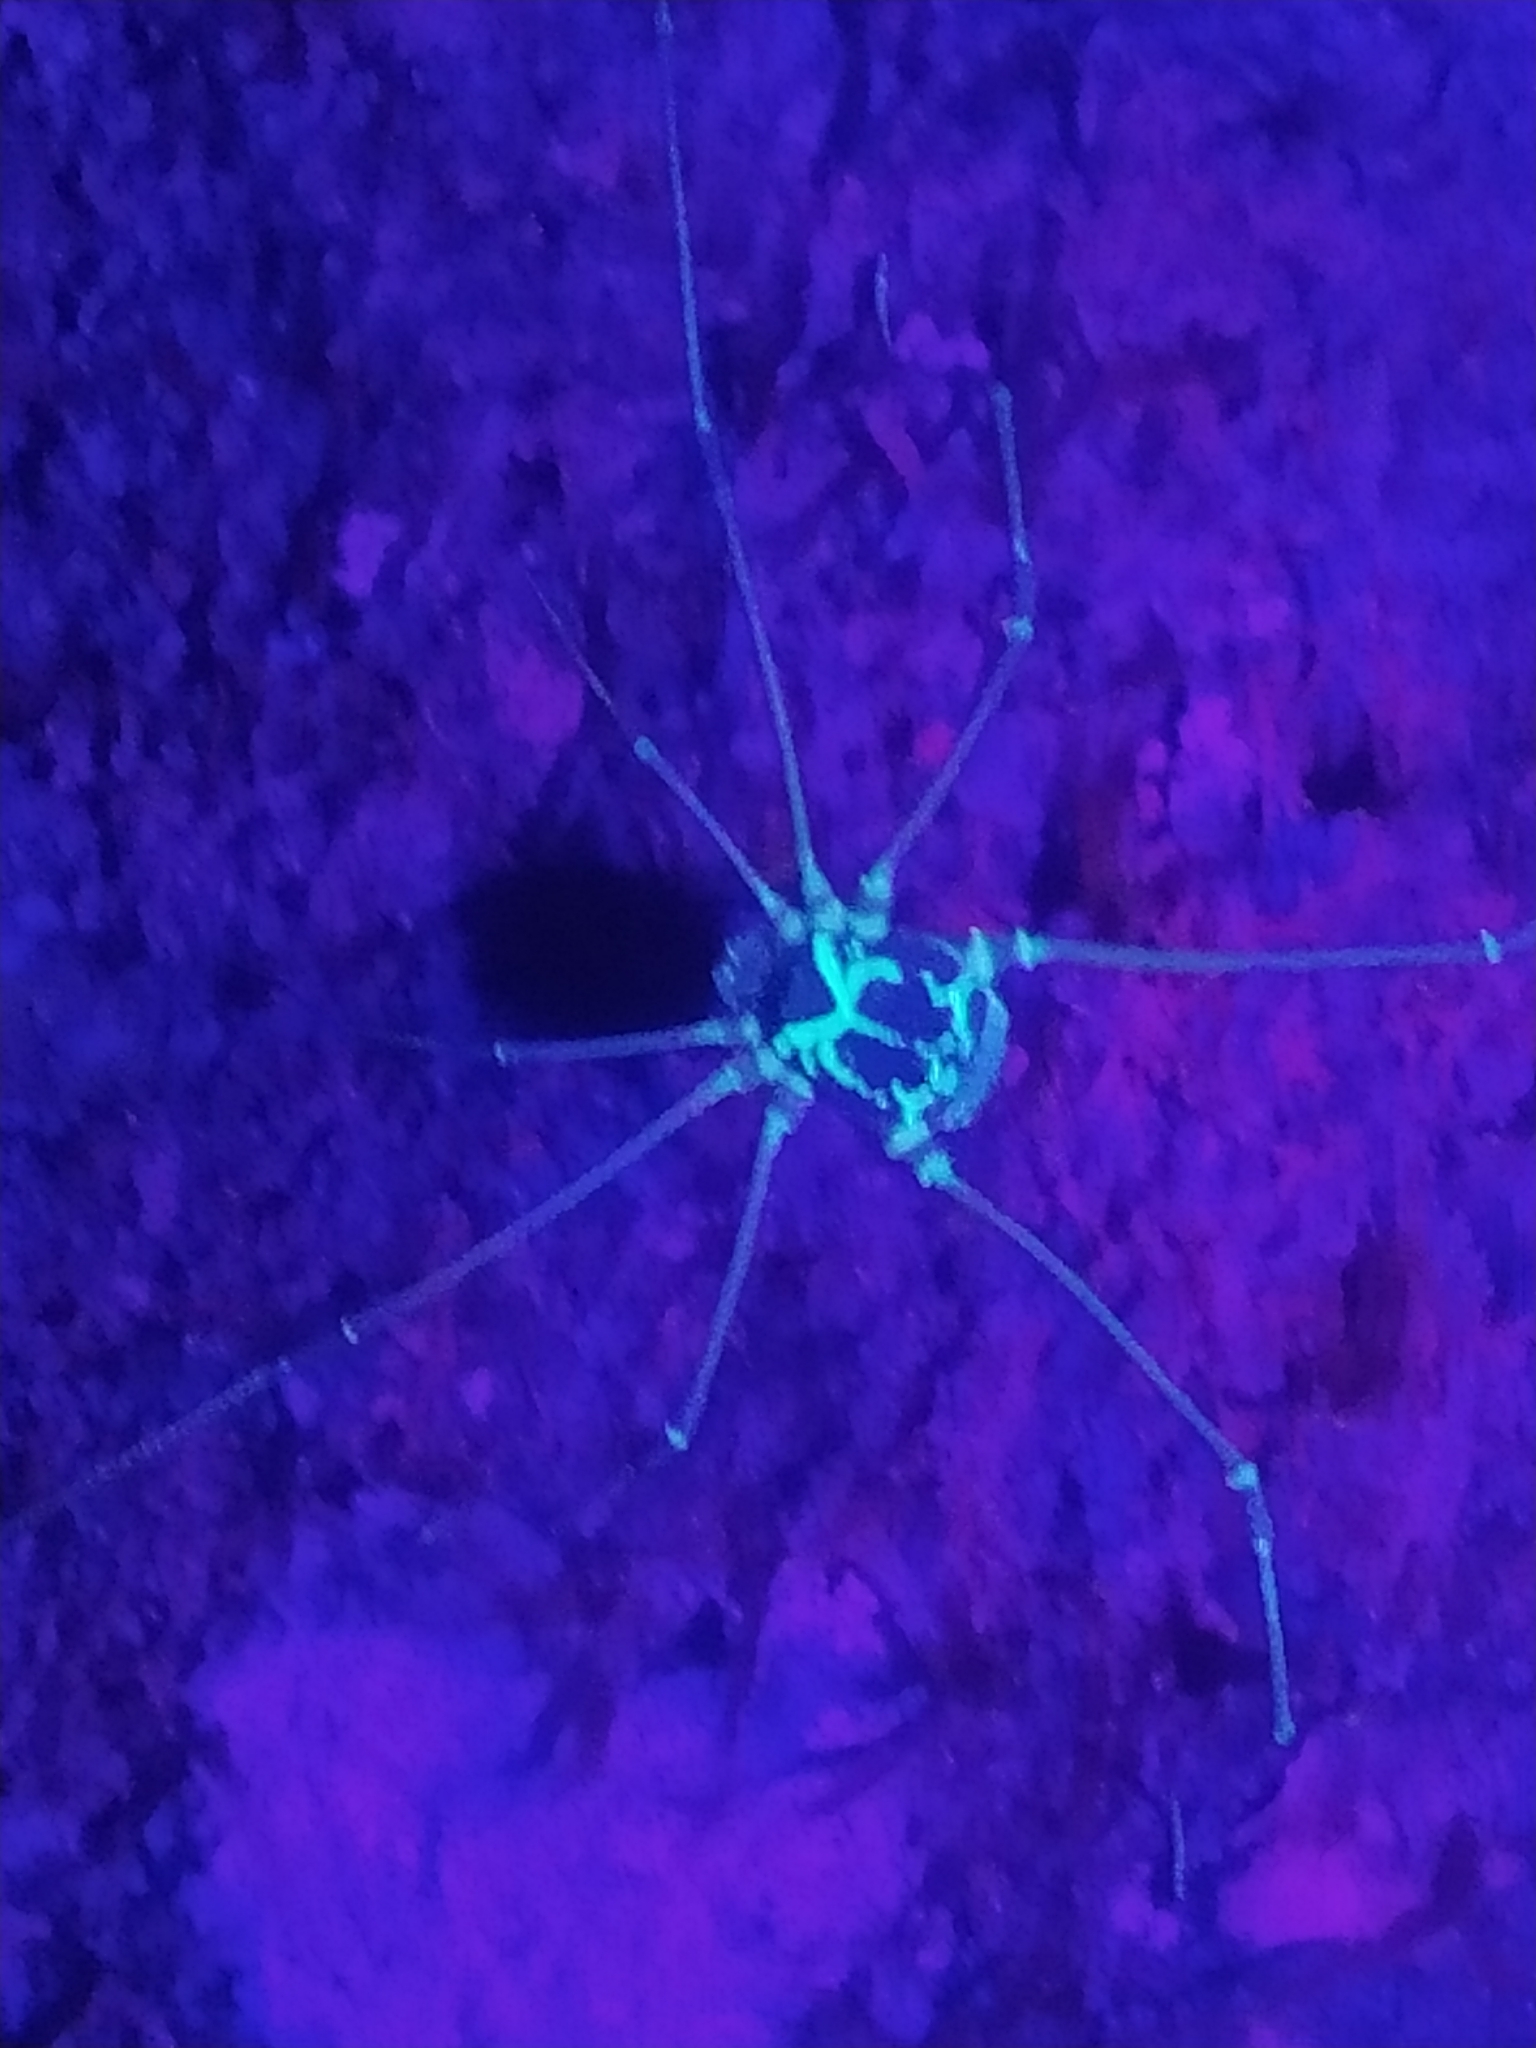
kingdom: Animalia
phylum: Arthropoda
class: Arachnida
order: Opiliones
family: Cosmetidae
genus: Paecilaema
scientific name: Paecilaema curvipes
